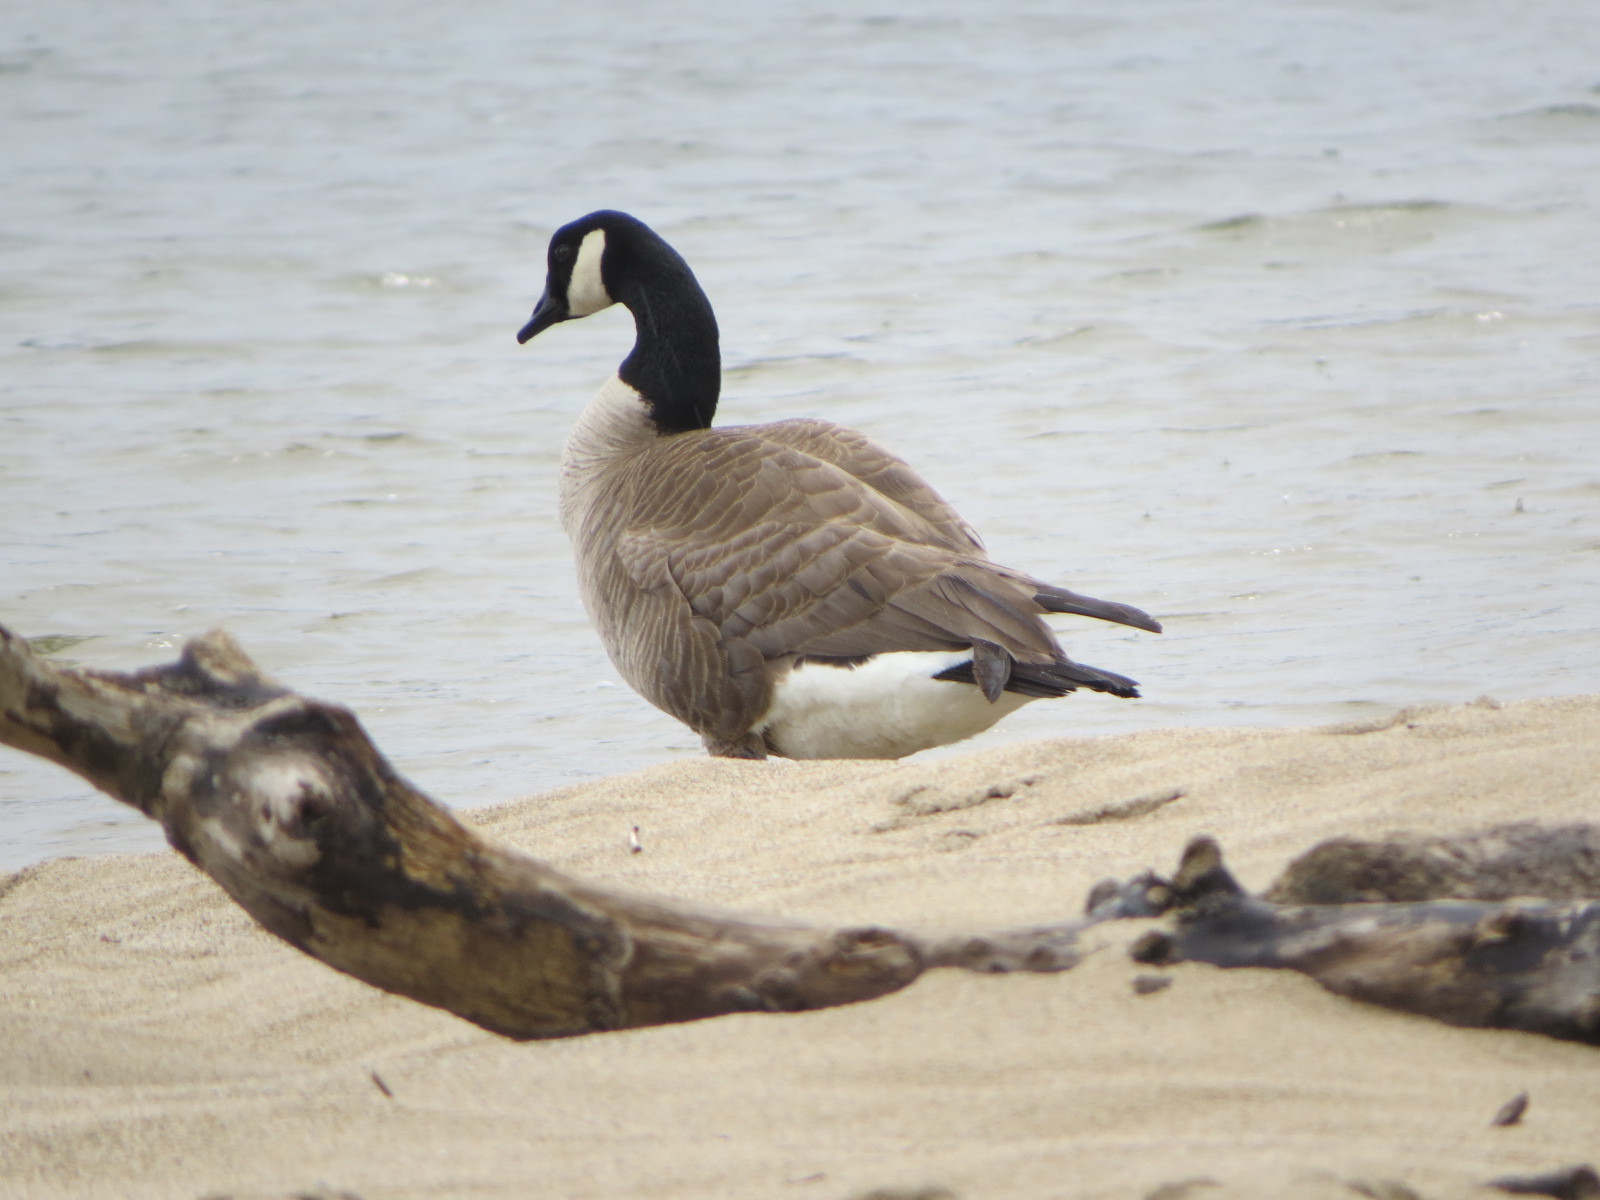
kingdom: Animalia
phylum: Chordata
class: Aves
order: Anseriformes
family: Anatidae
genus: Branta
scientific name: Branta canadensis
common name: Canada goose
